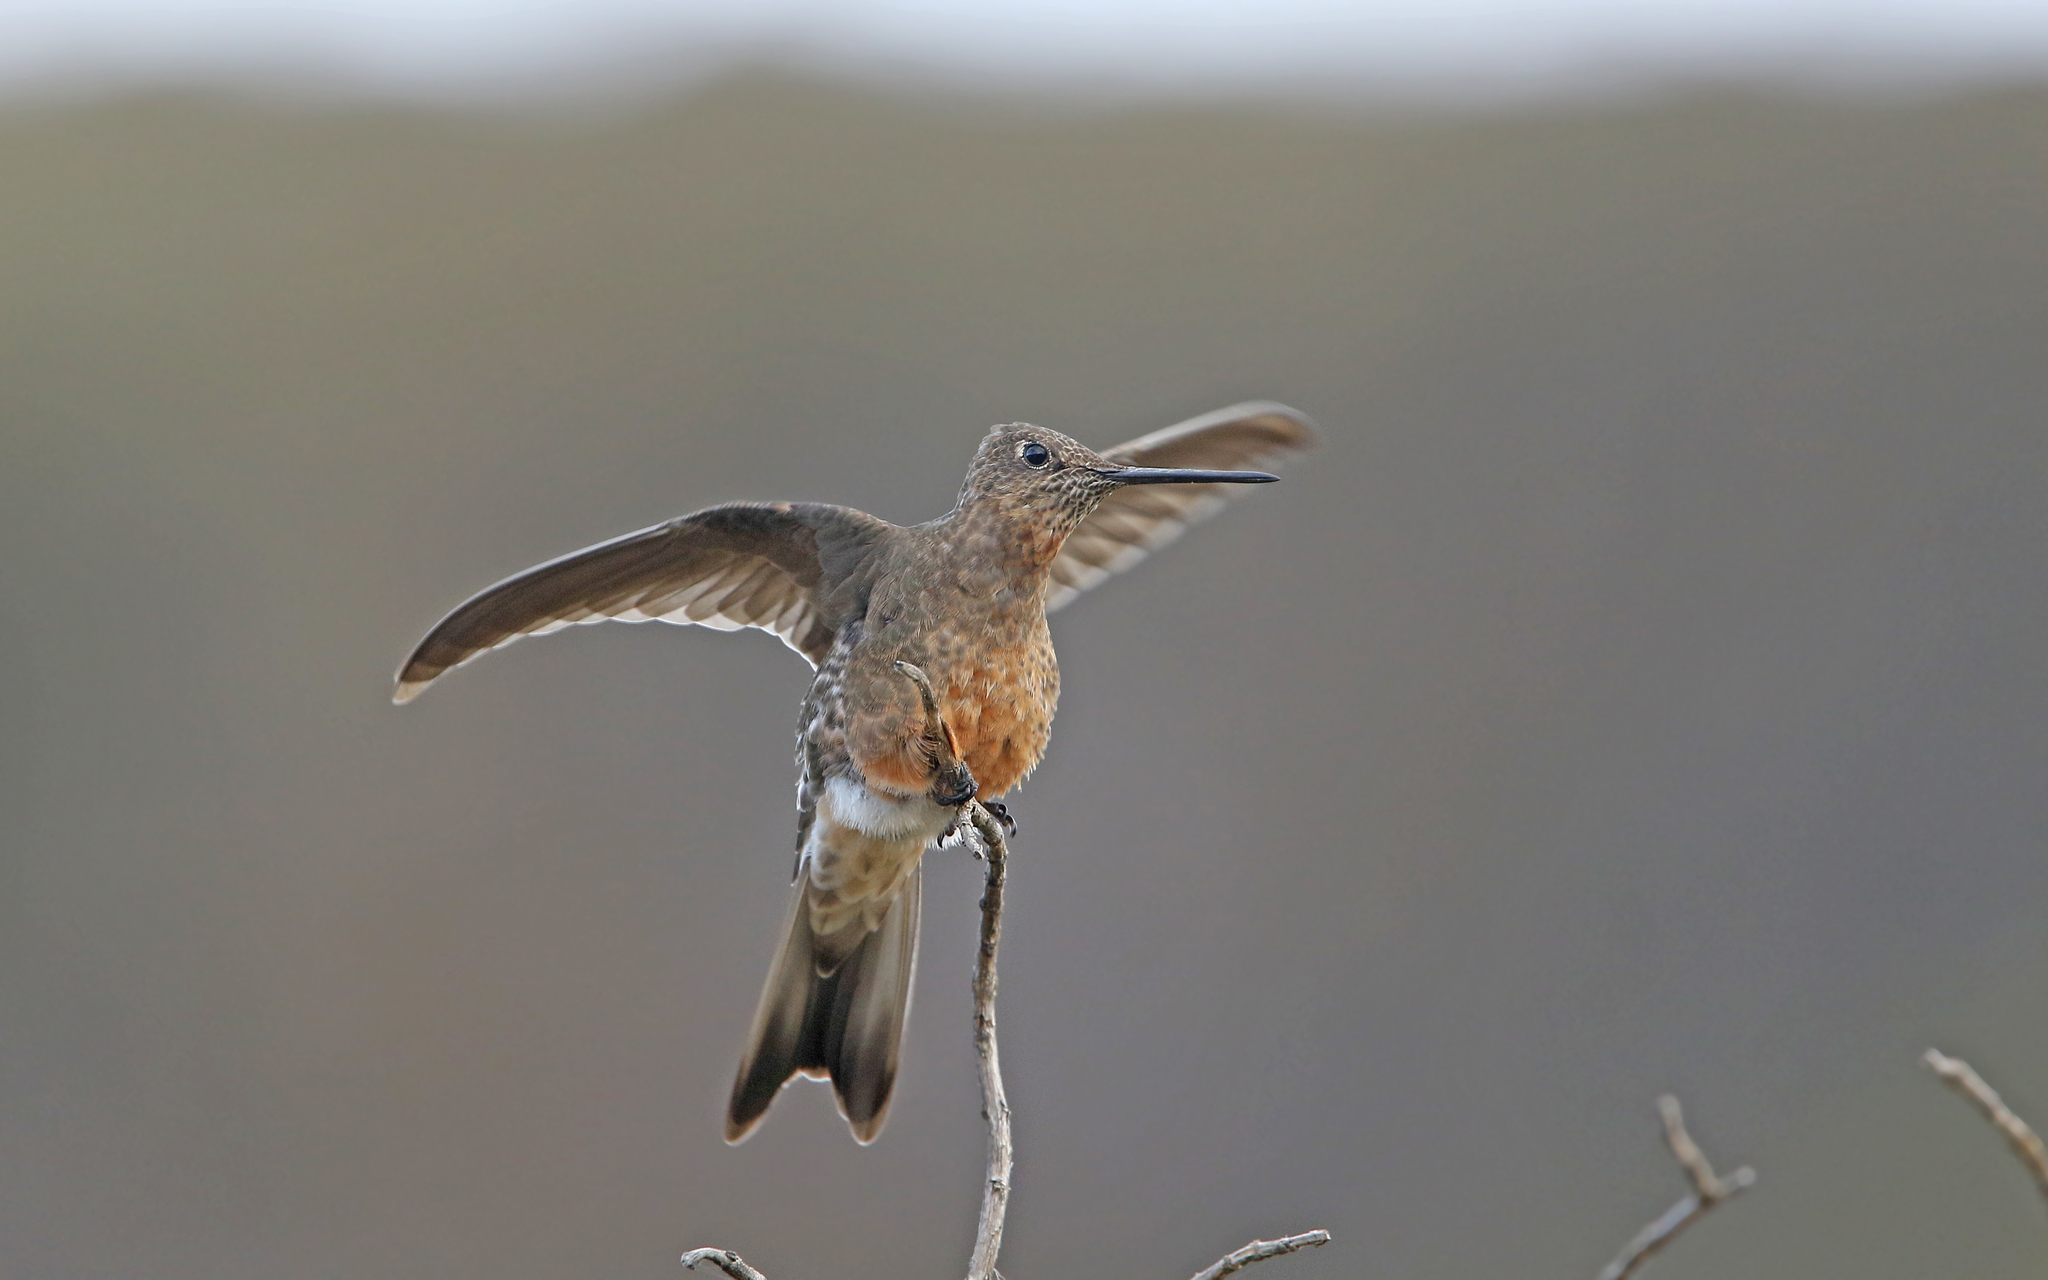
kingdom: Animalia
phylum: Chordata
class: Aves
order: Apodiformes
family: Trochilidae
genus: Patagona
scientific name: Patagona gigas
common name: Giant hummingbird
